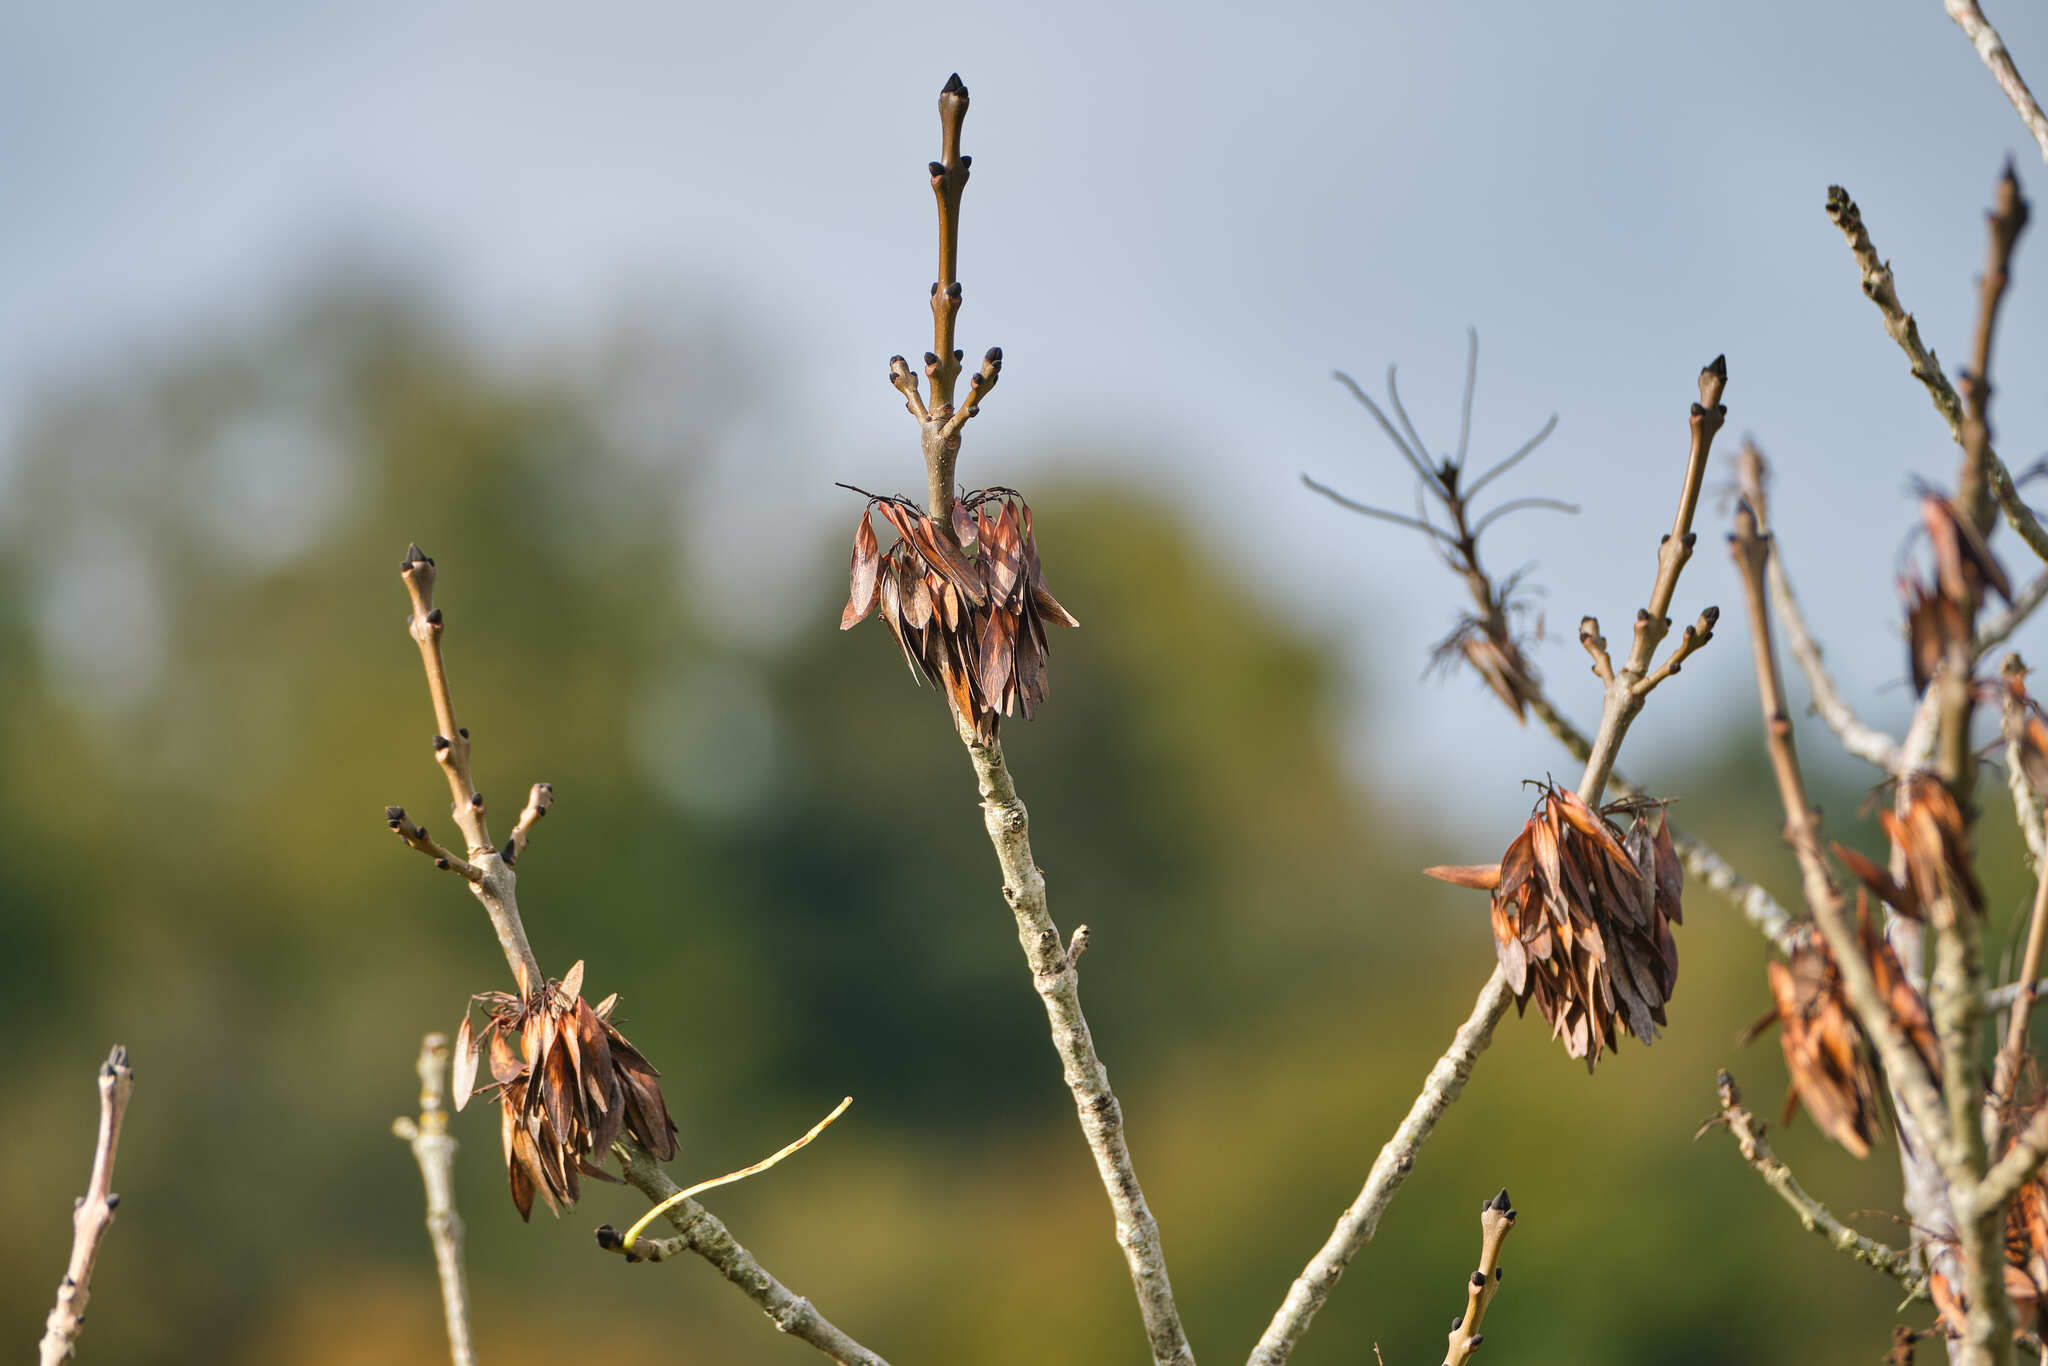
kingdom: Plantae
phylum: Tracheophyta
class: Magnoliopsida
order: Lamiales
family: Oleaceae
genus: Fraxinus
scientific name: Fraxinus excelsior
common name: European ash
